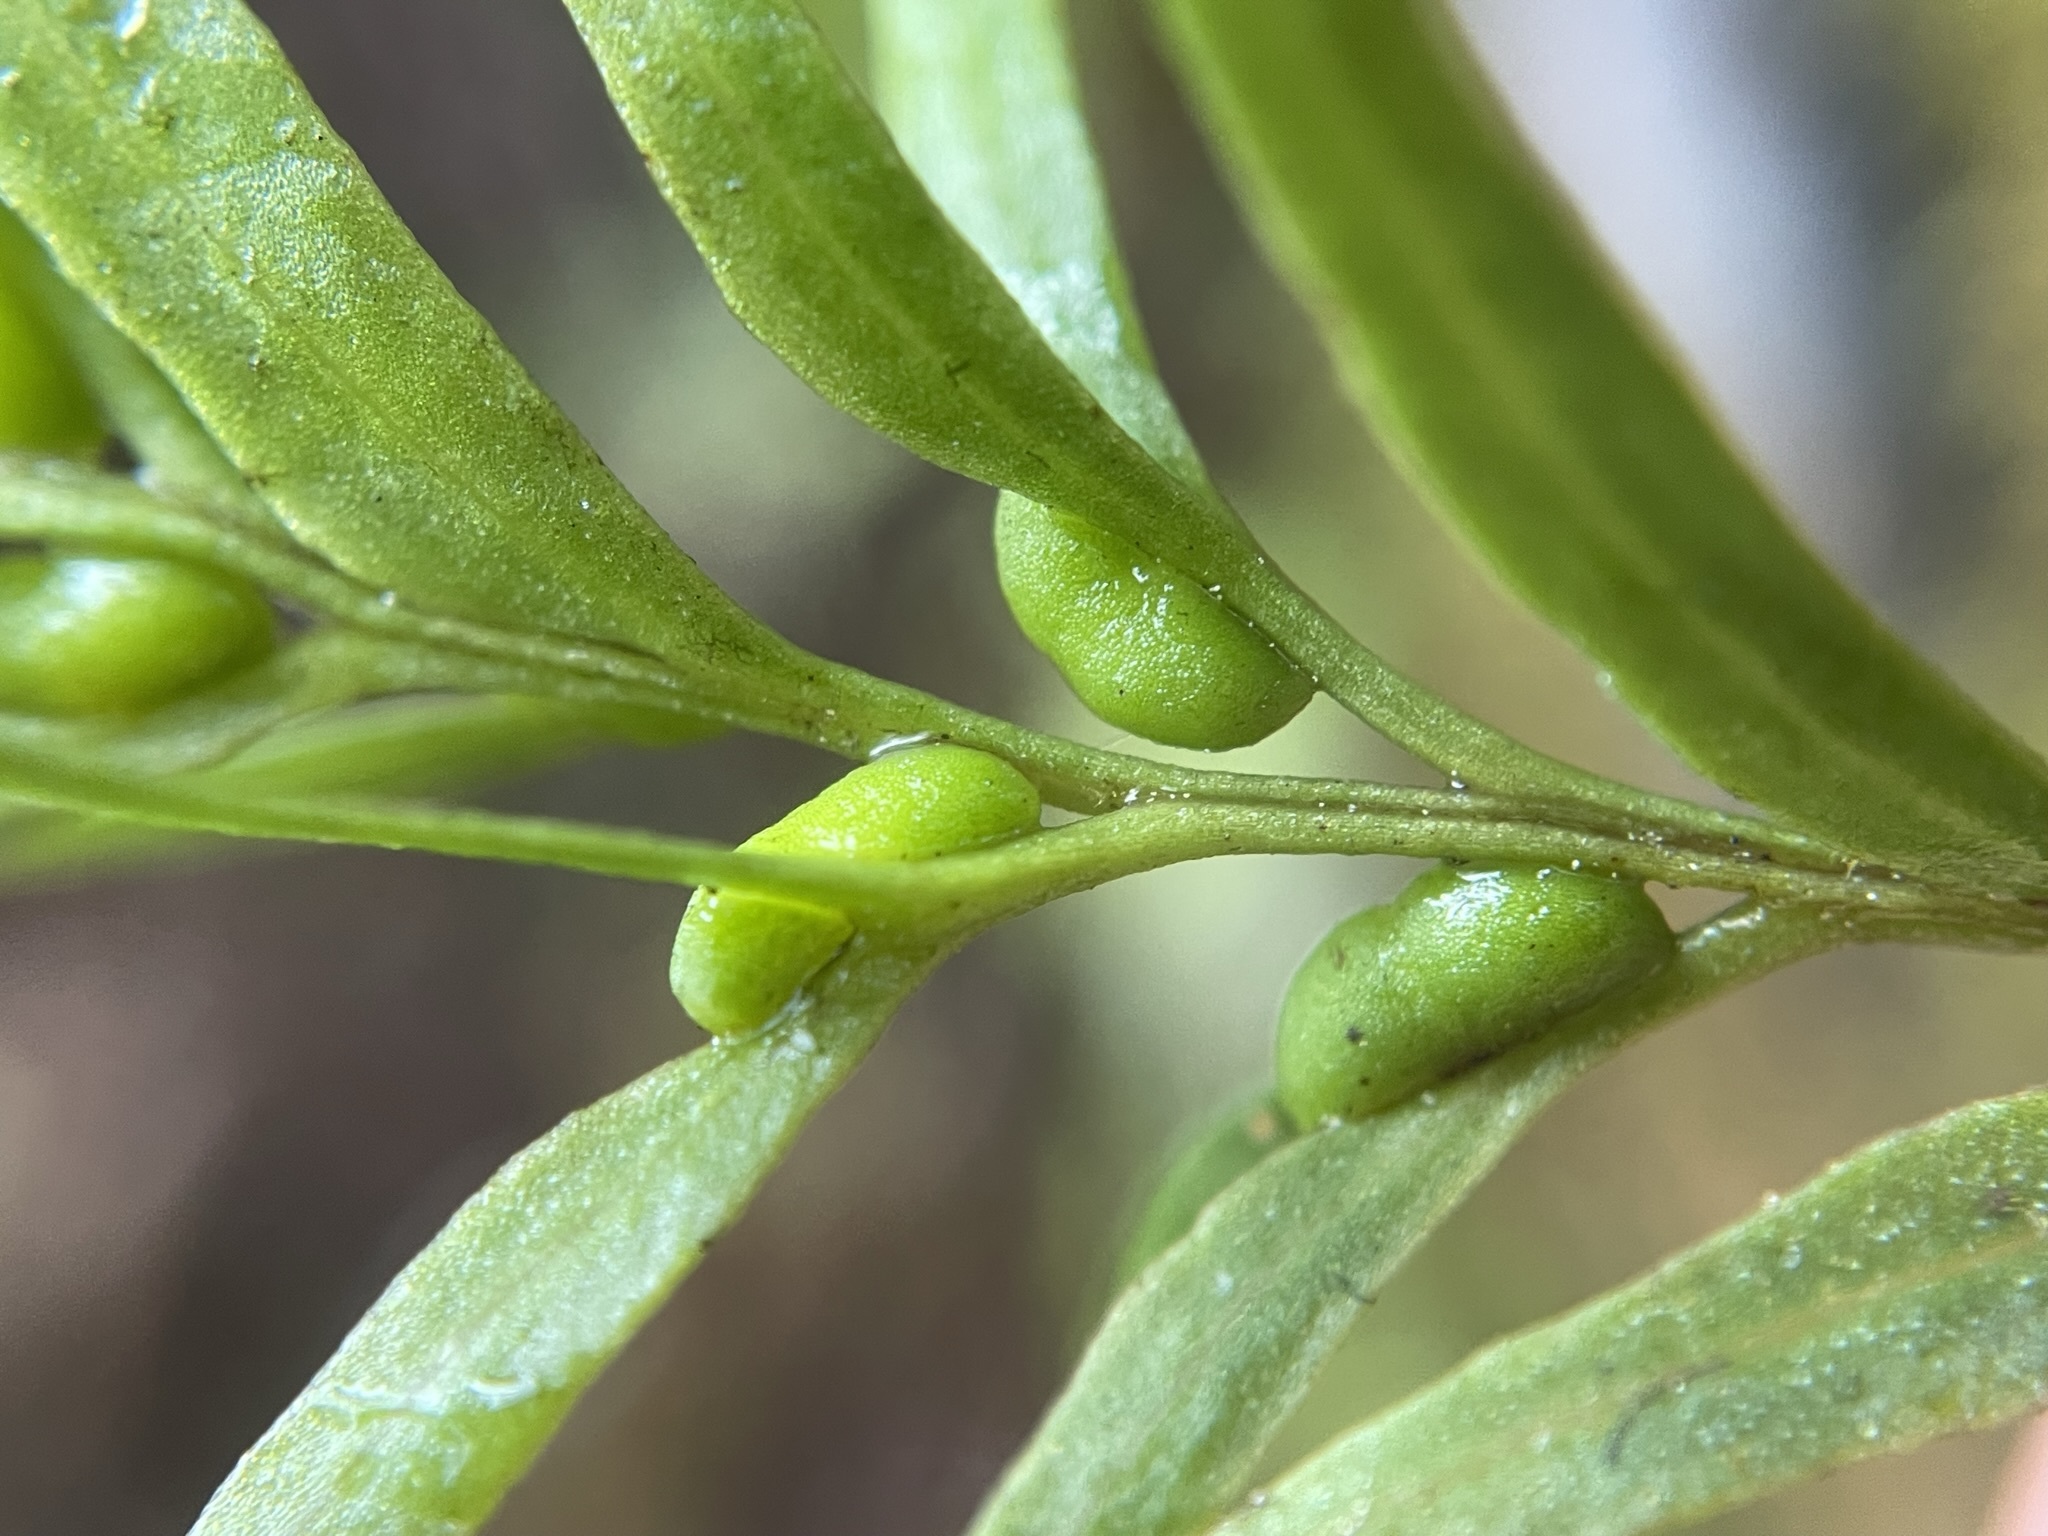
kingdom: Plantae
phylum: Tracheophyta
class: Polypodiopsida
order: Psilotales
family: Psilotaceae
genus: Tmesipteris
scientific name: Tmesipteris elongata
